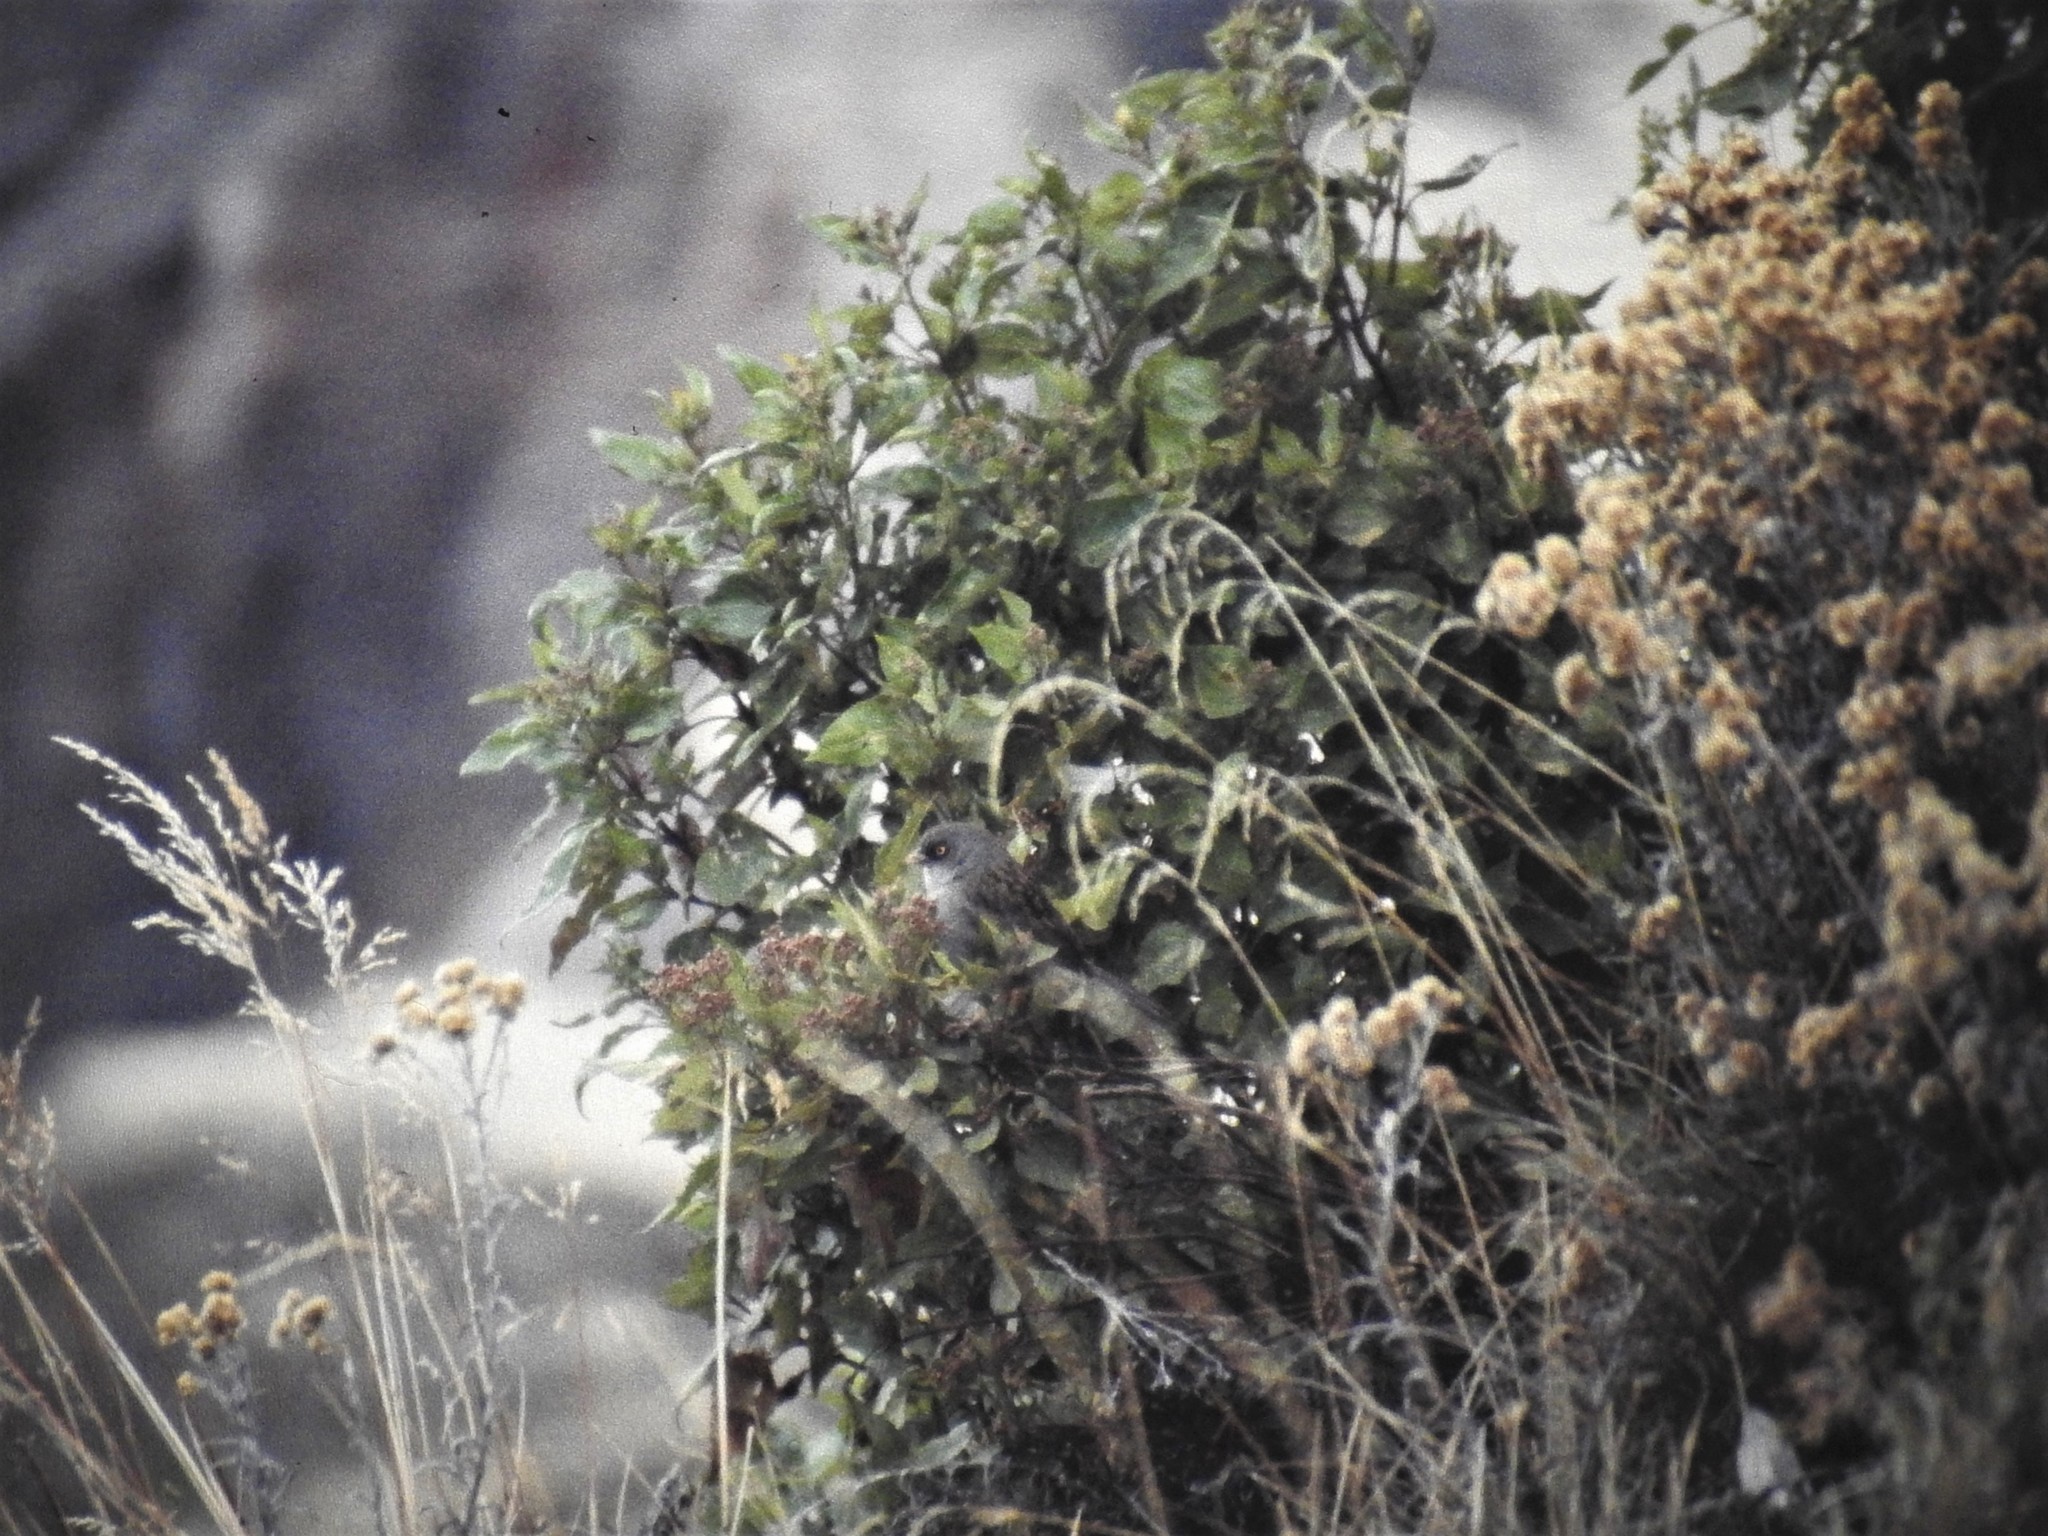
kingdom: Animalia
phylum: Chordata
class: Aves
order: Passeriformes
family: Passerellidae
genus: Junco
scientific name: Junco vulcani
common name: Volcano junco
